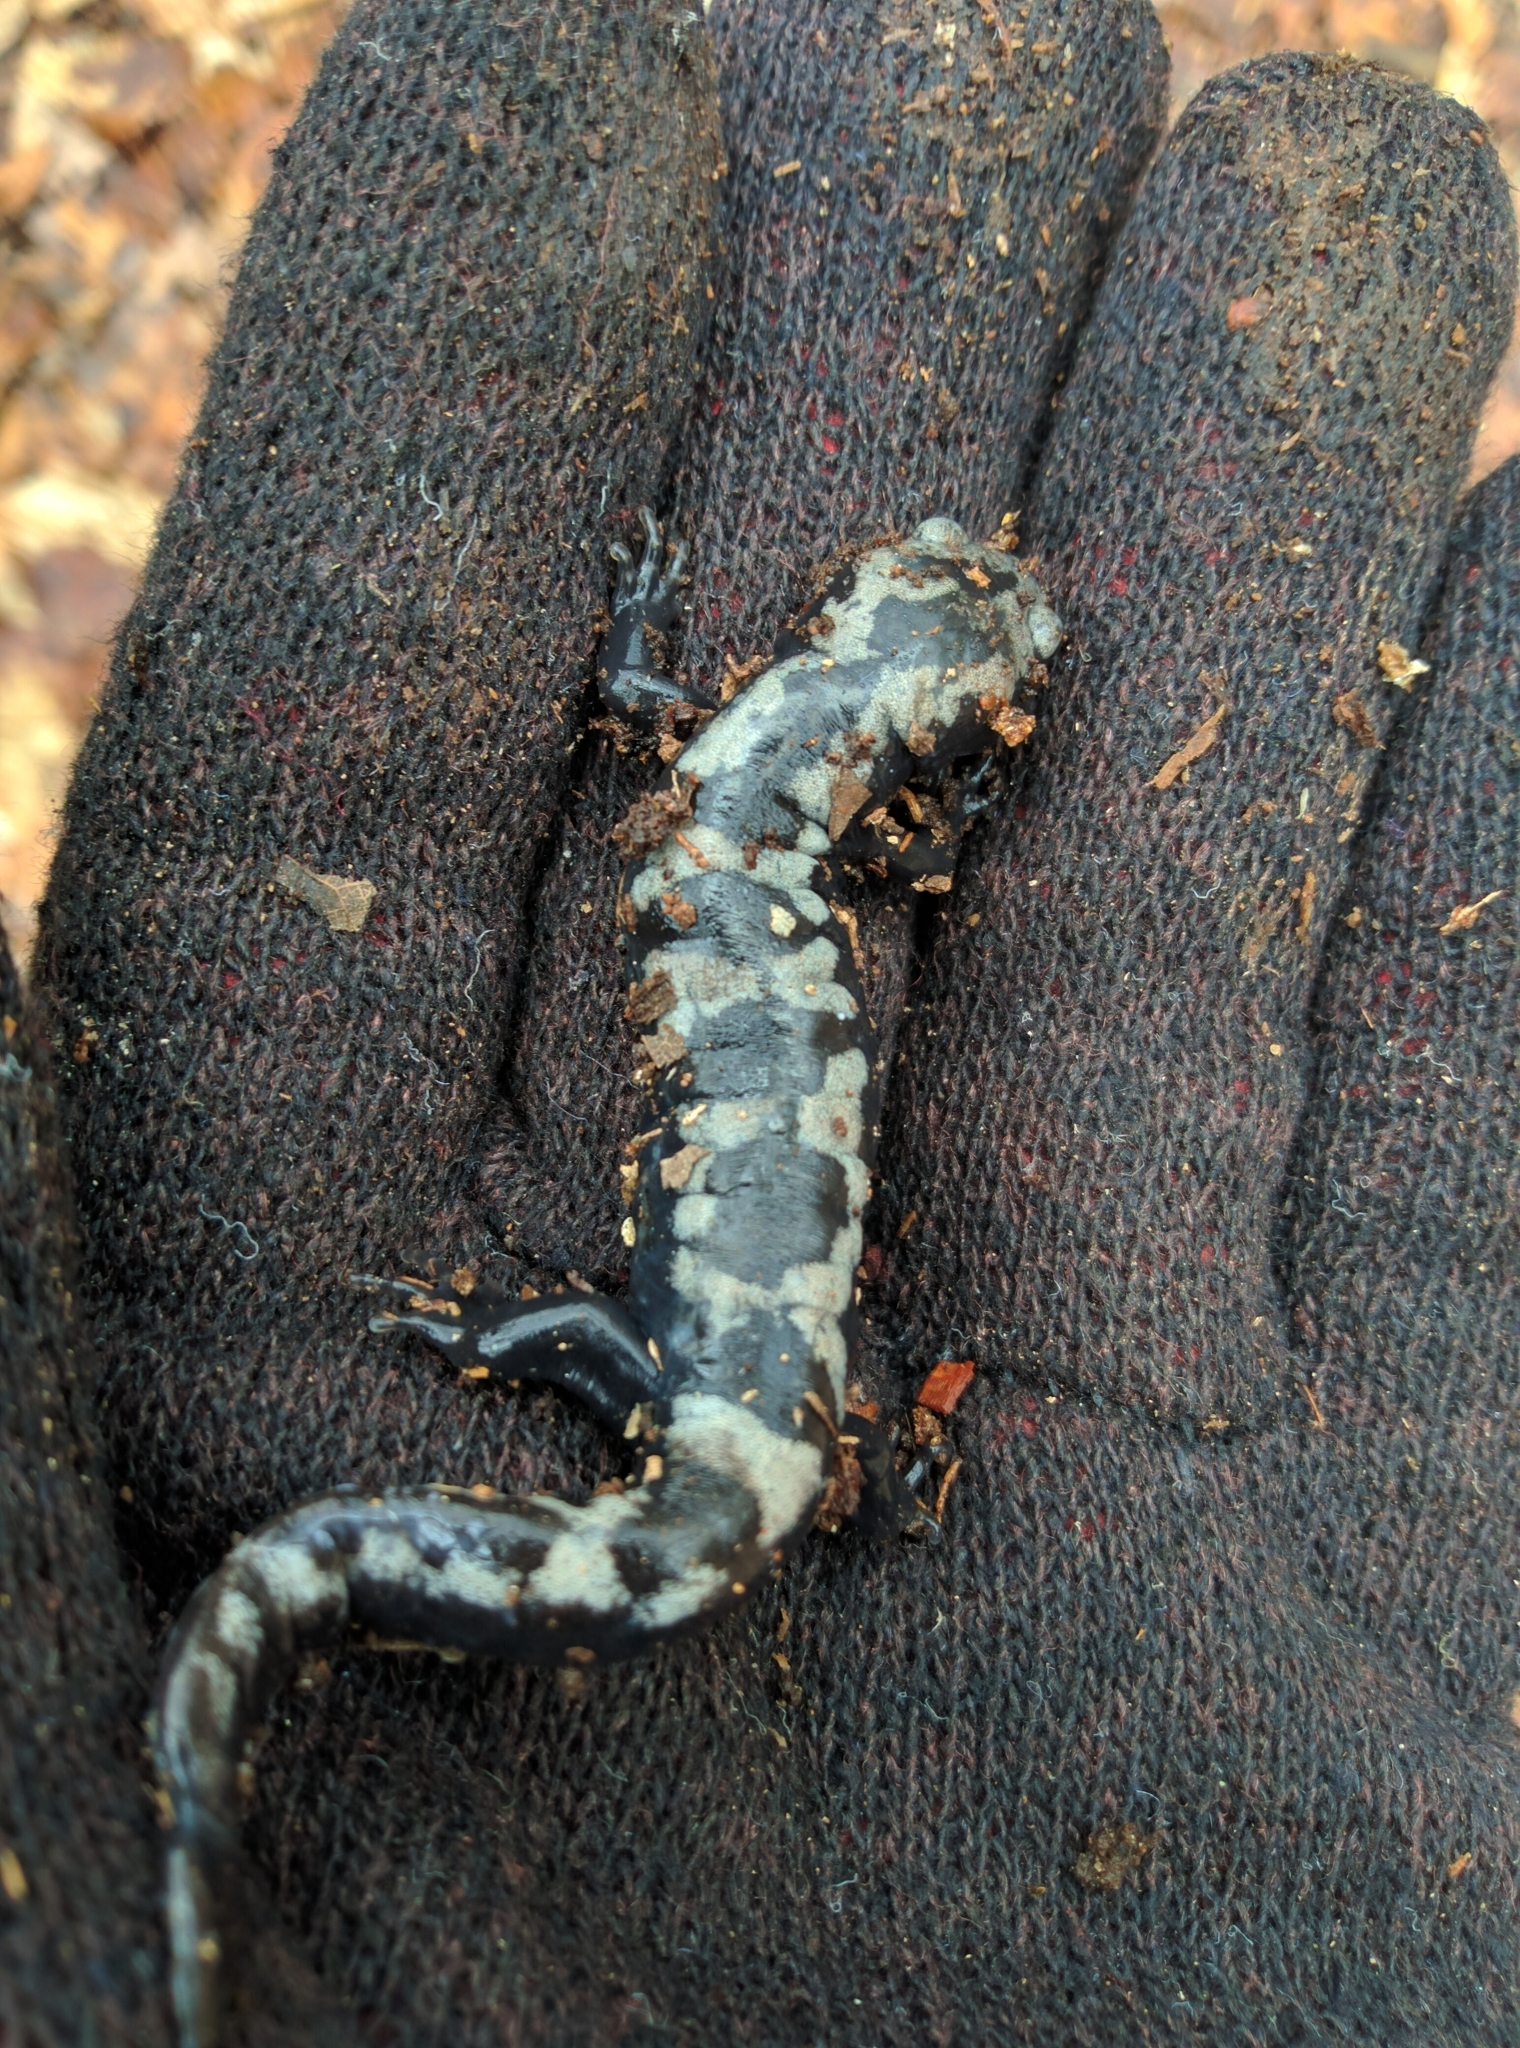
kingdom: Animalia
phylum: Chordata
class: Amphibia
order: Caudata
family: Ambystomatidae
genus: Ambystoma
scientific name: Ambystoma opacum
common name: Marbled salamander
